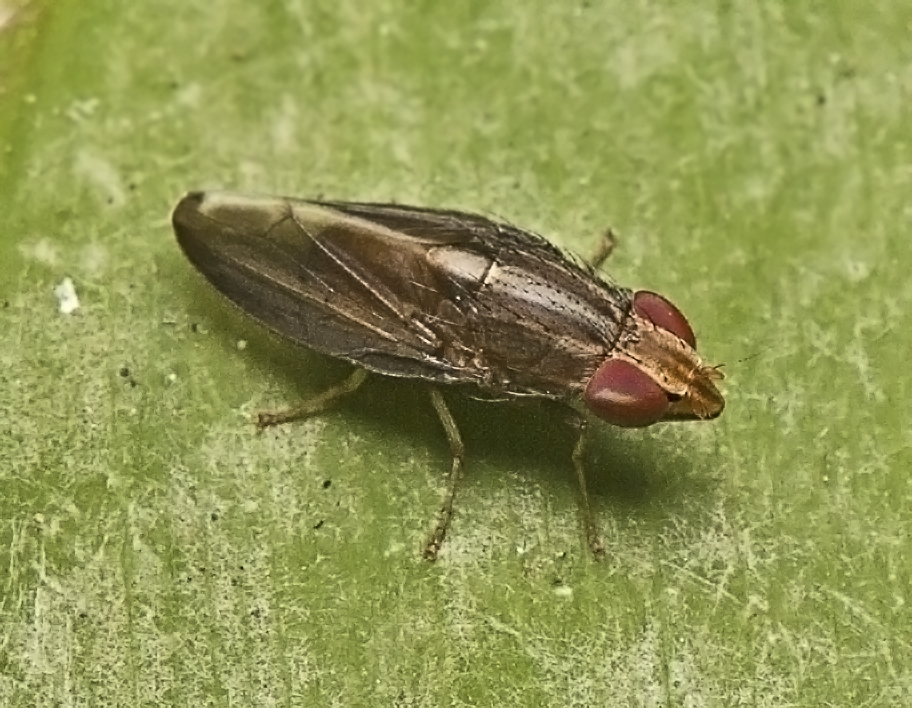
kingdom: Animalia
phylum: Arthropoda
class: Insecta
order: Diptera
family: Lauxaniidae
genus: Cephaloconus
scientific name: Cephaloconus cyprinus
